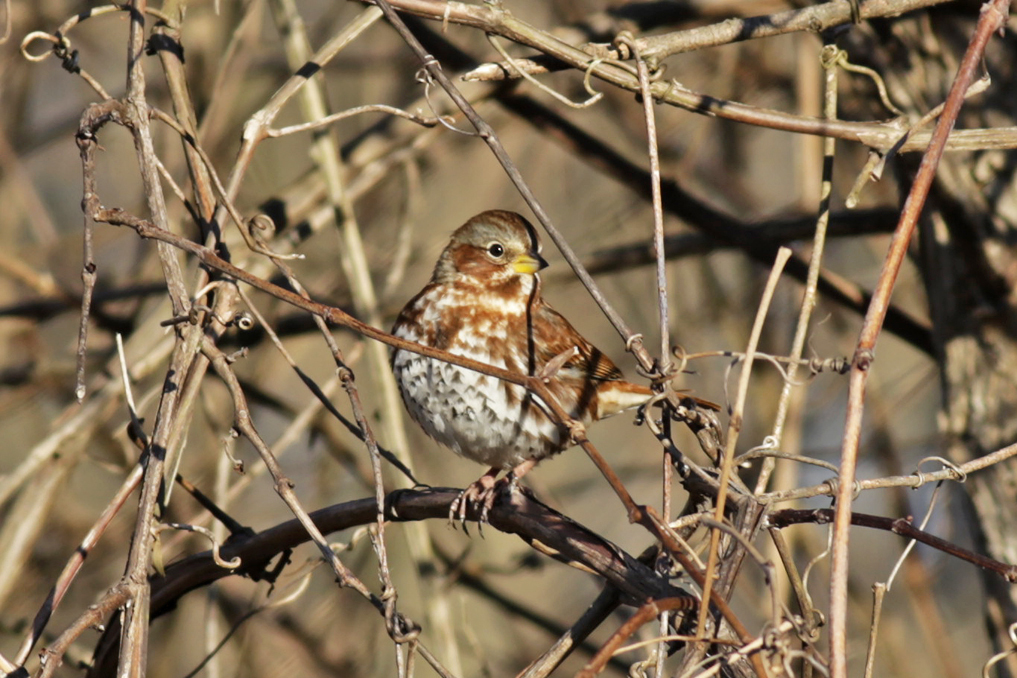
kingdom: Animalia
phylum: Chordata
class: Aves
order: Passeriformes
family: Passerellidae
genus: Passerella
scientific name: Passerella iliaca
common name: Fox sparrow
